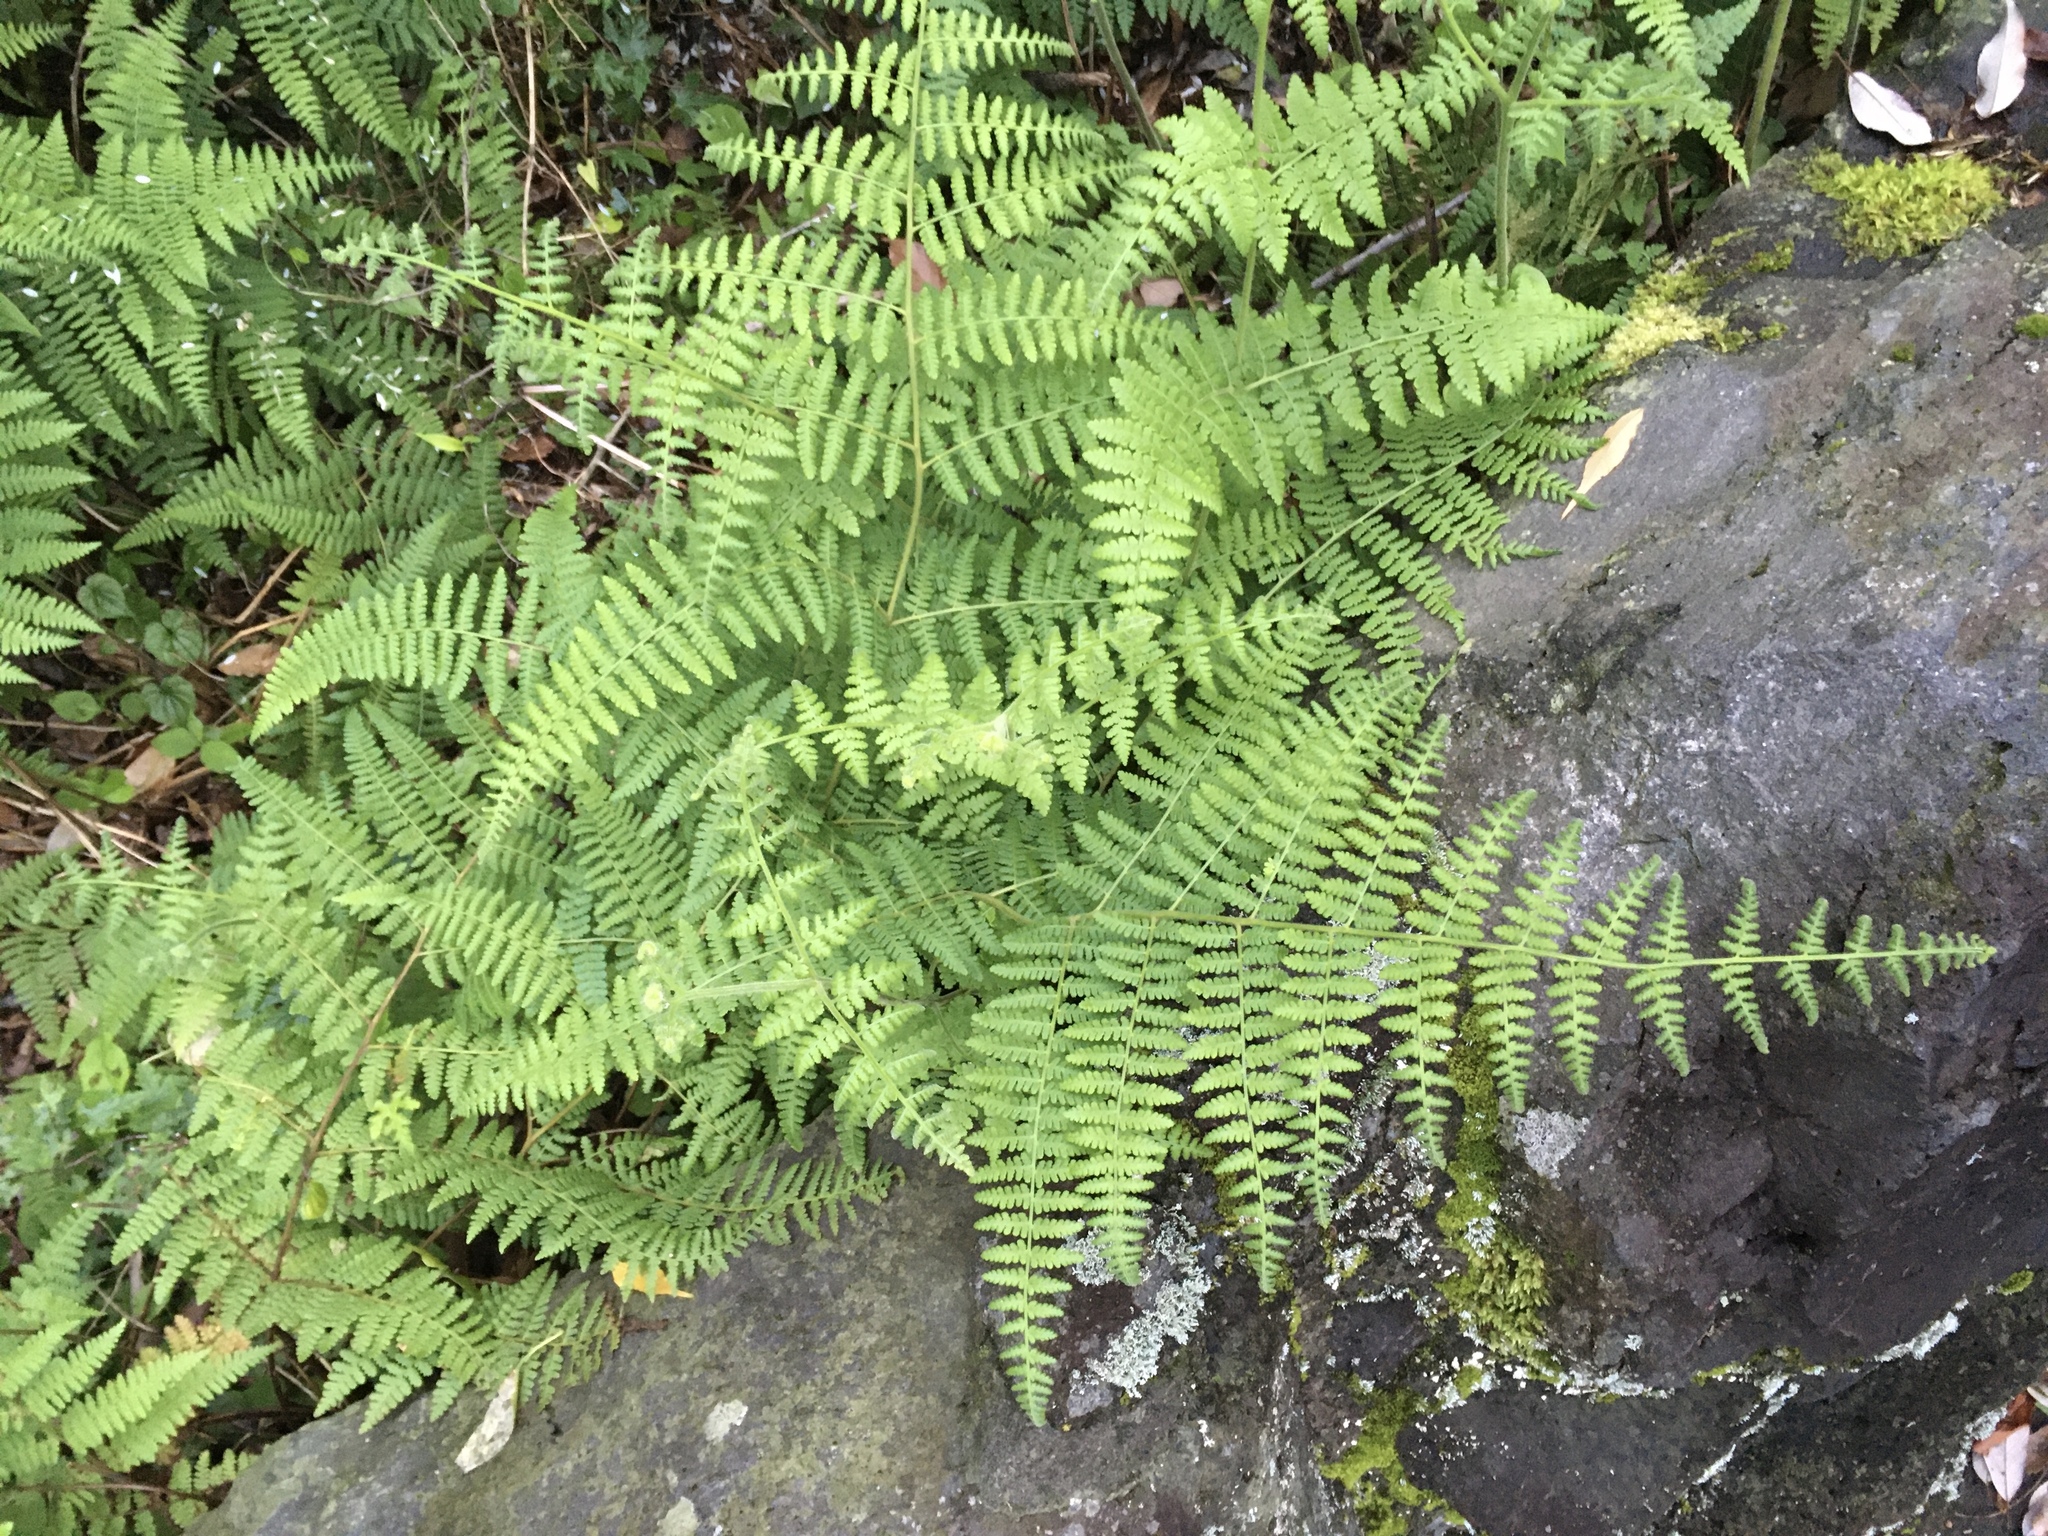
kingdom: Plantae
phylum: Tracheophyta
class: Polypodiopsida
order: Polypodiales
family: Dennstaedtiaceae
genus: Hypolepis
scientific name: Hypolepis punctata
